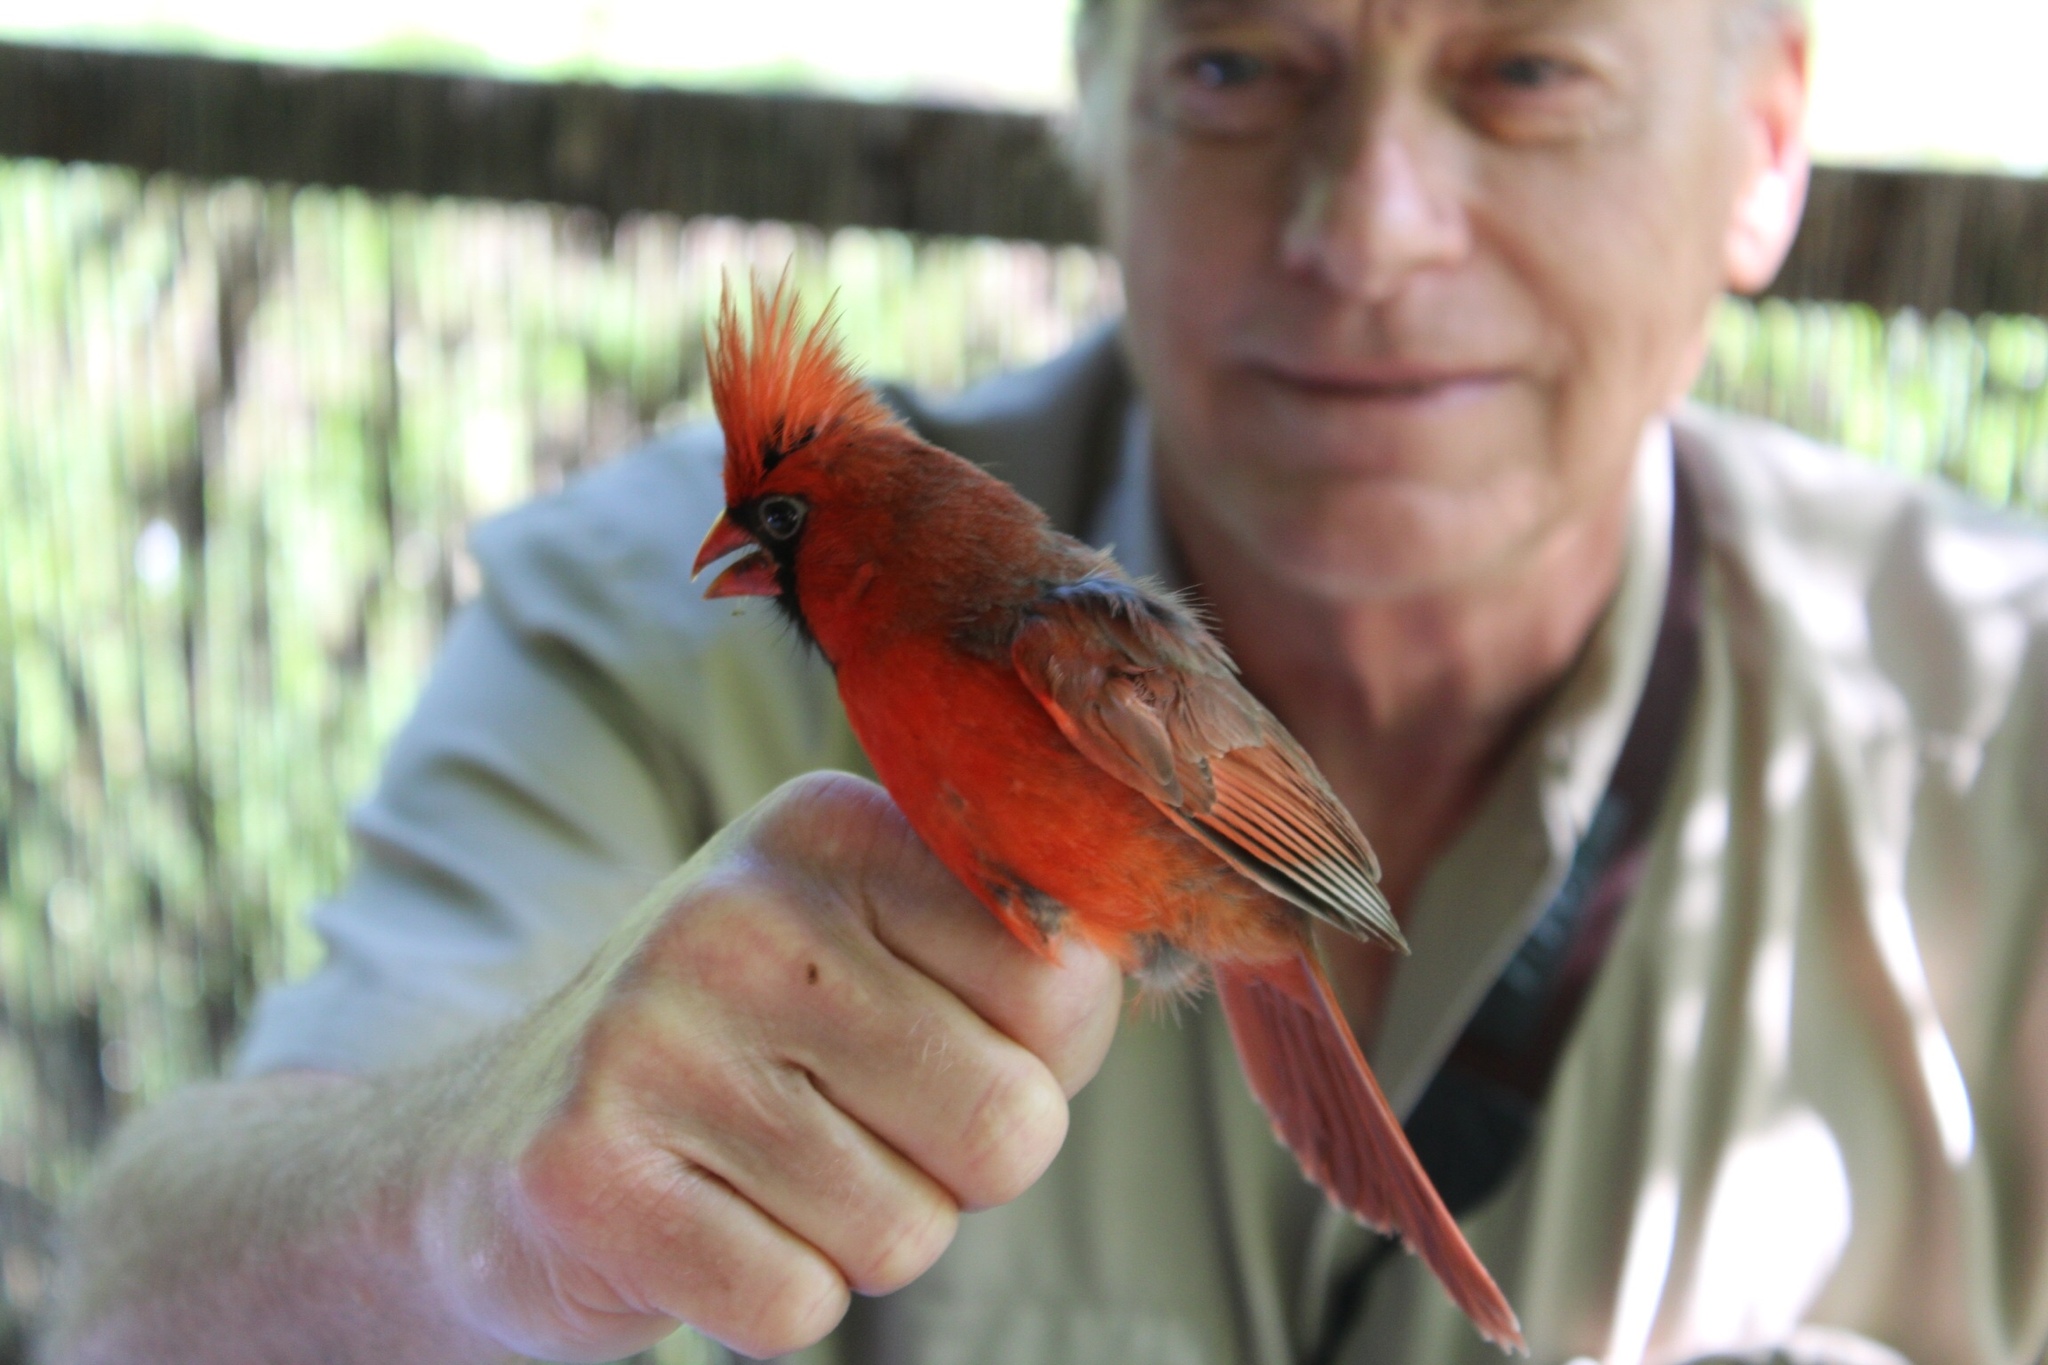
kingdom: Animalia
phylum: Chordata
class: Aves
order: Passeriformes
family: Cardinalidae
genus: Cardinalis
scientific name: Cardinalis cardinalis
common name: Northern cardinal
